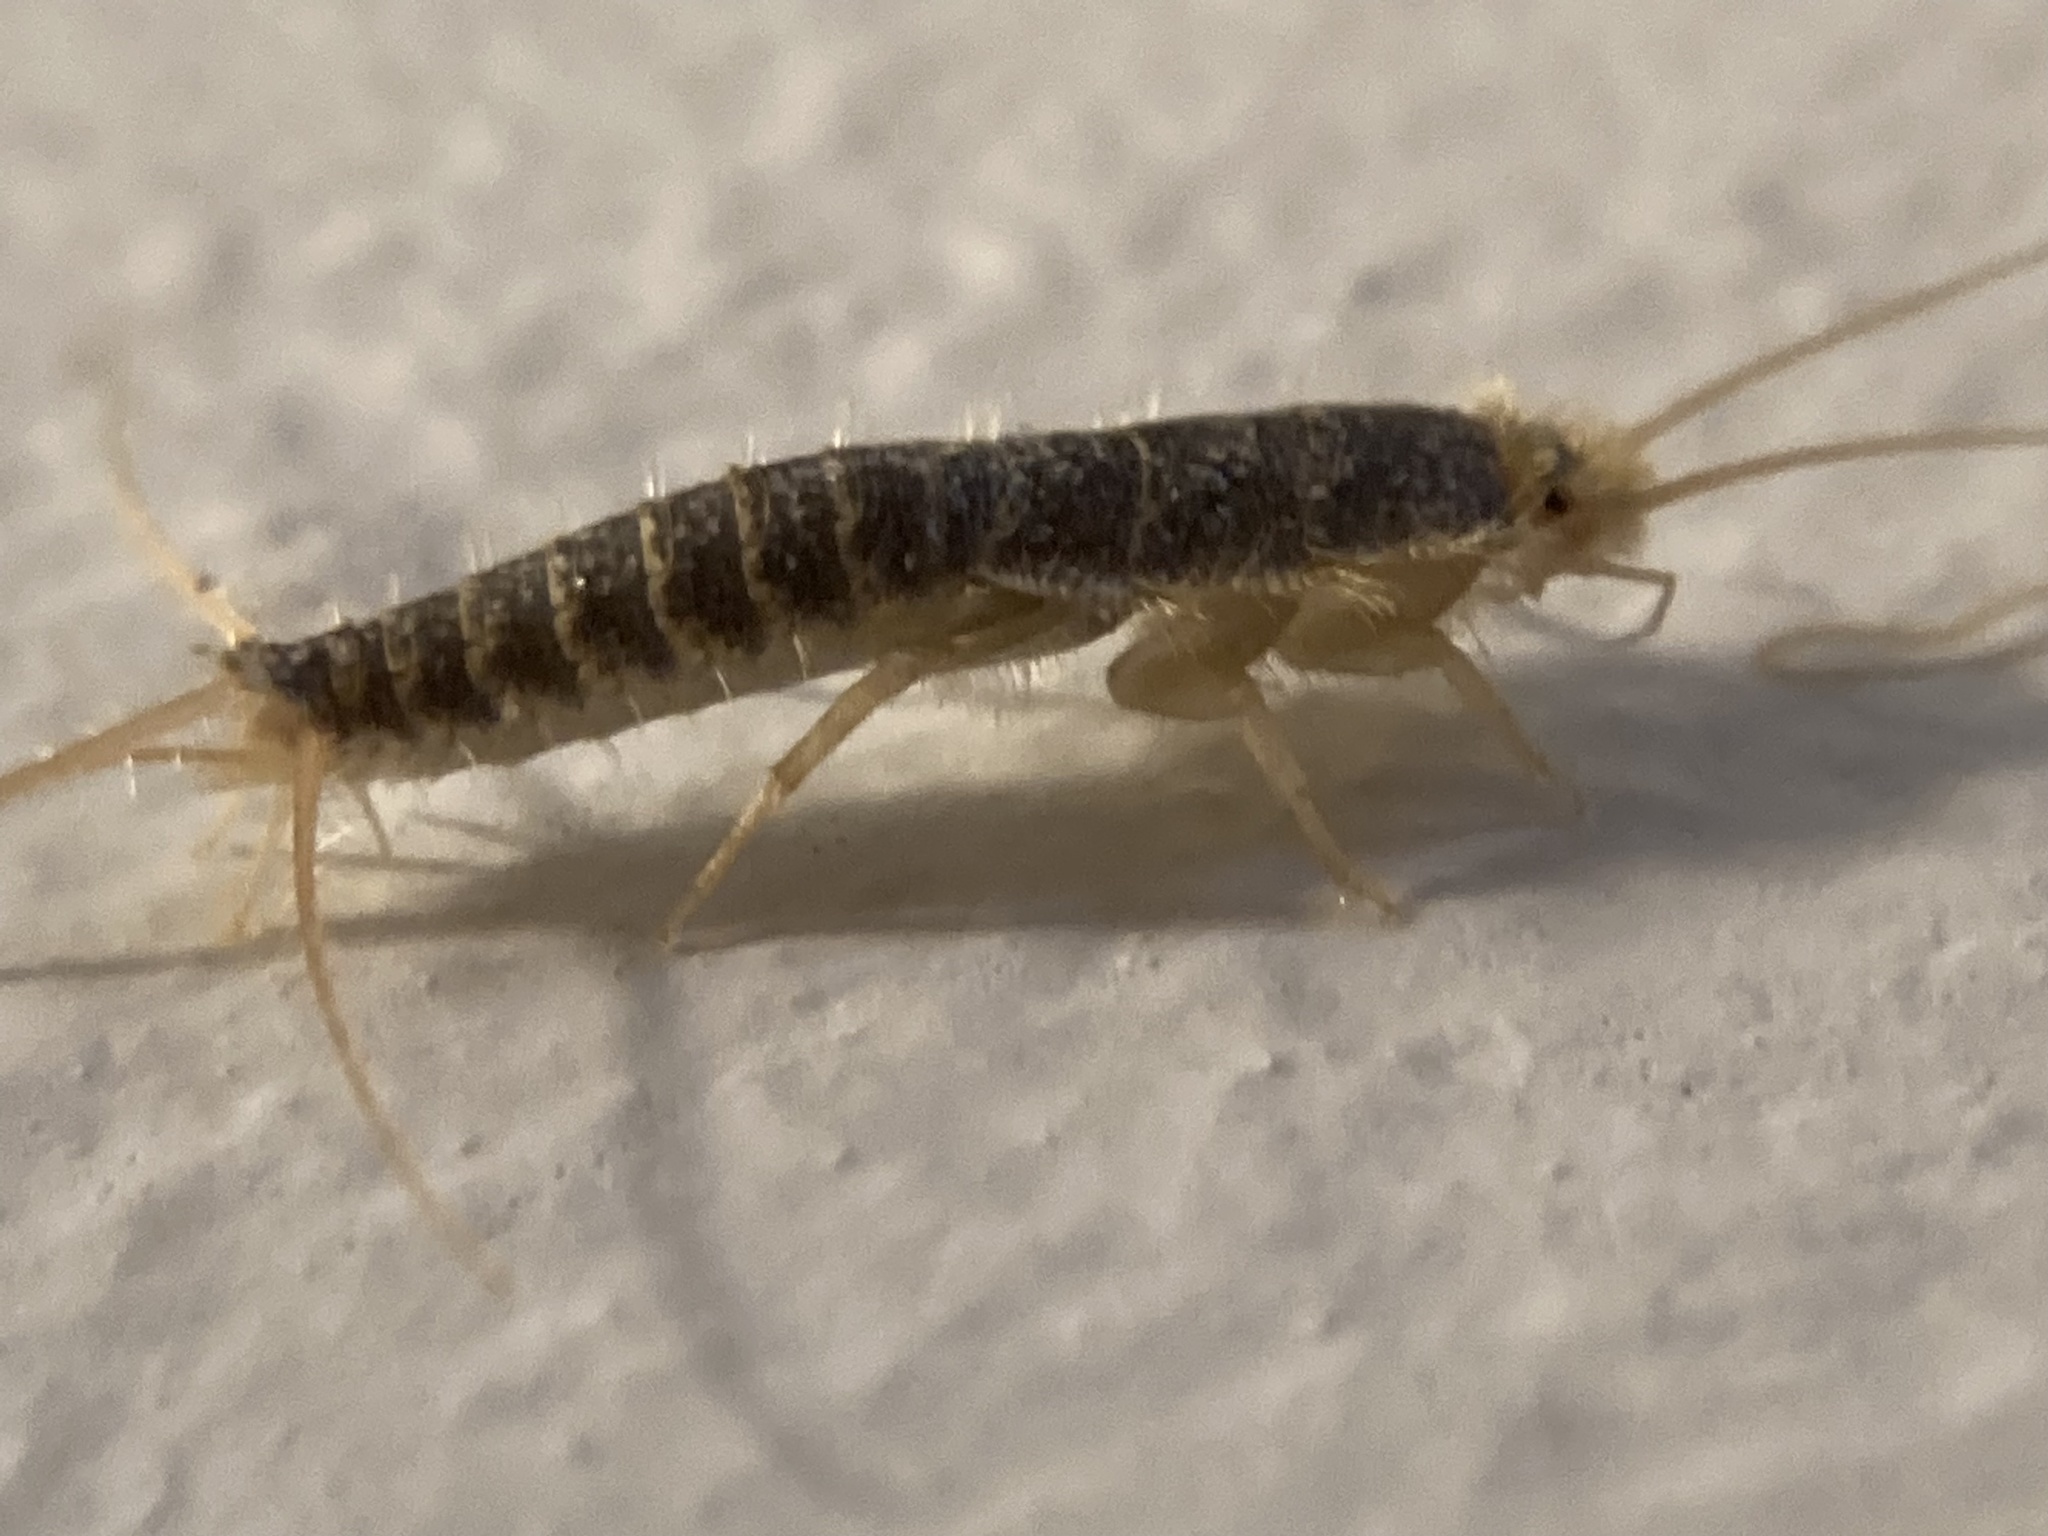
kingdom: Animalia
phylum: Arthropoda
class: Insecta
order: Zygentoma
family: Lepismatidae
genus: Ctenolepisma
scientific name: Ctenolepisma longicaudatum
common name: Silverfish
